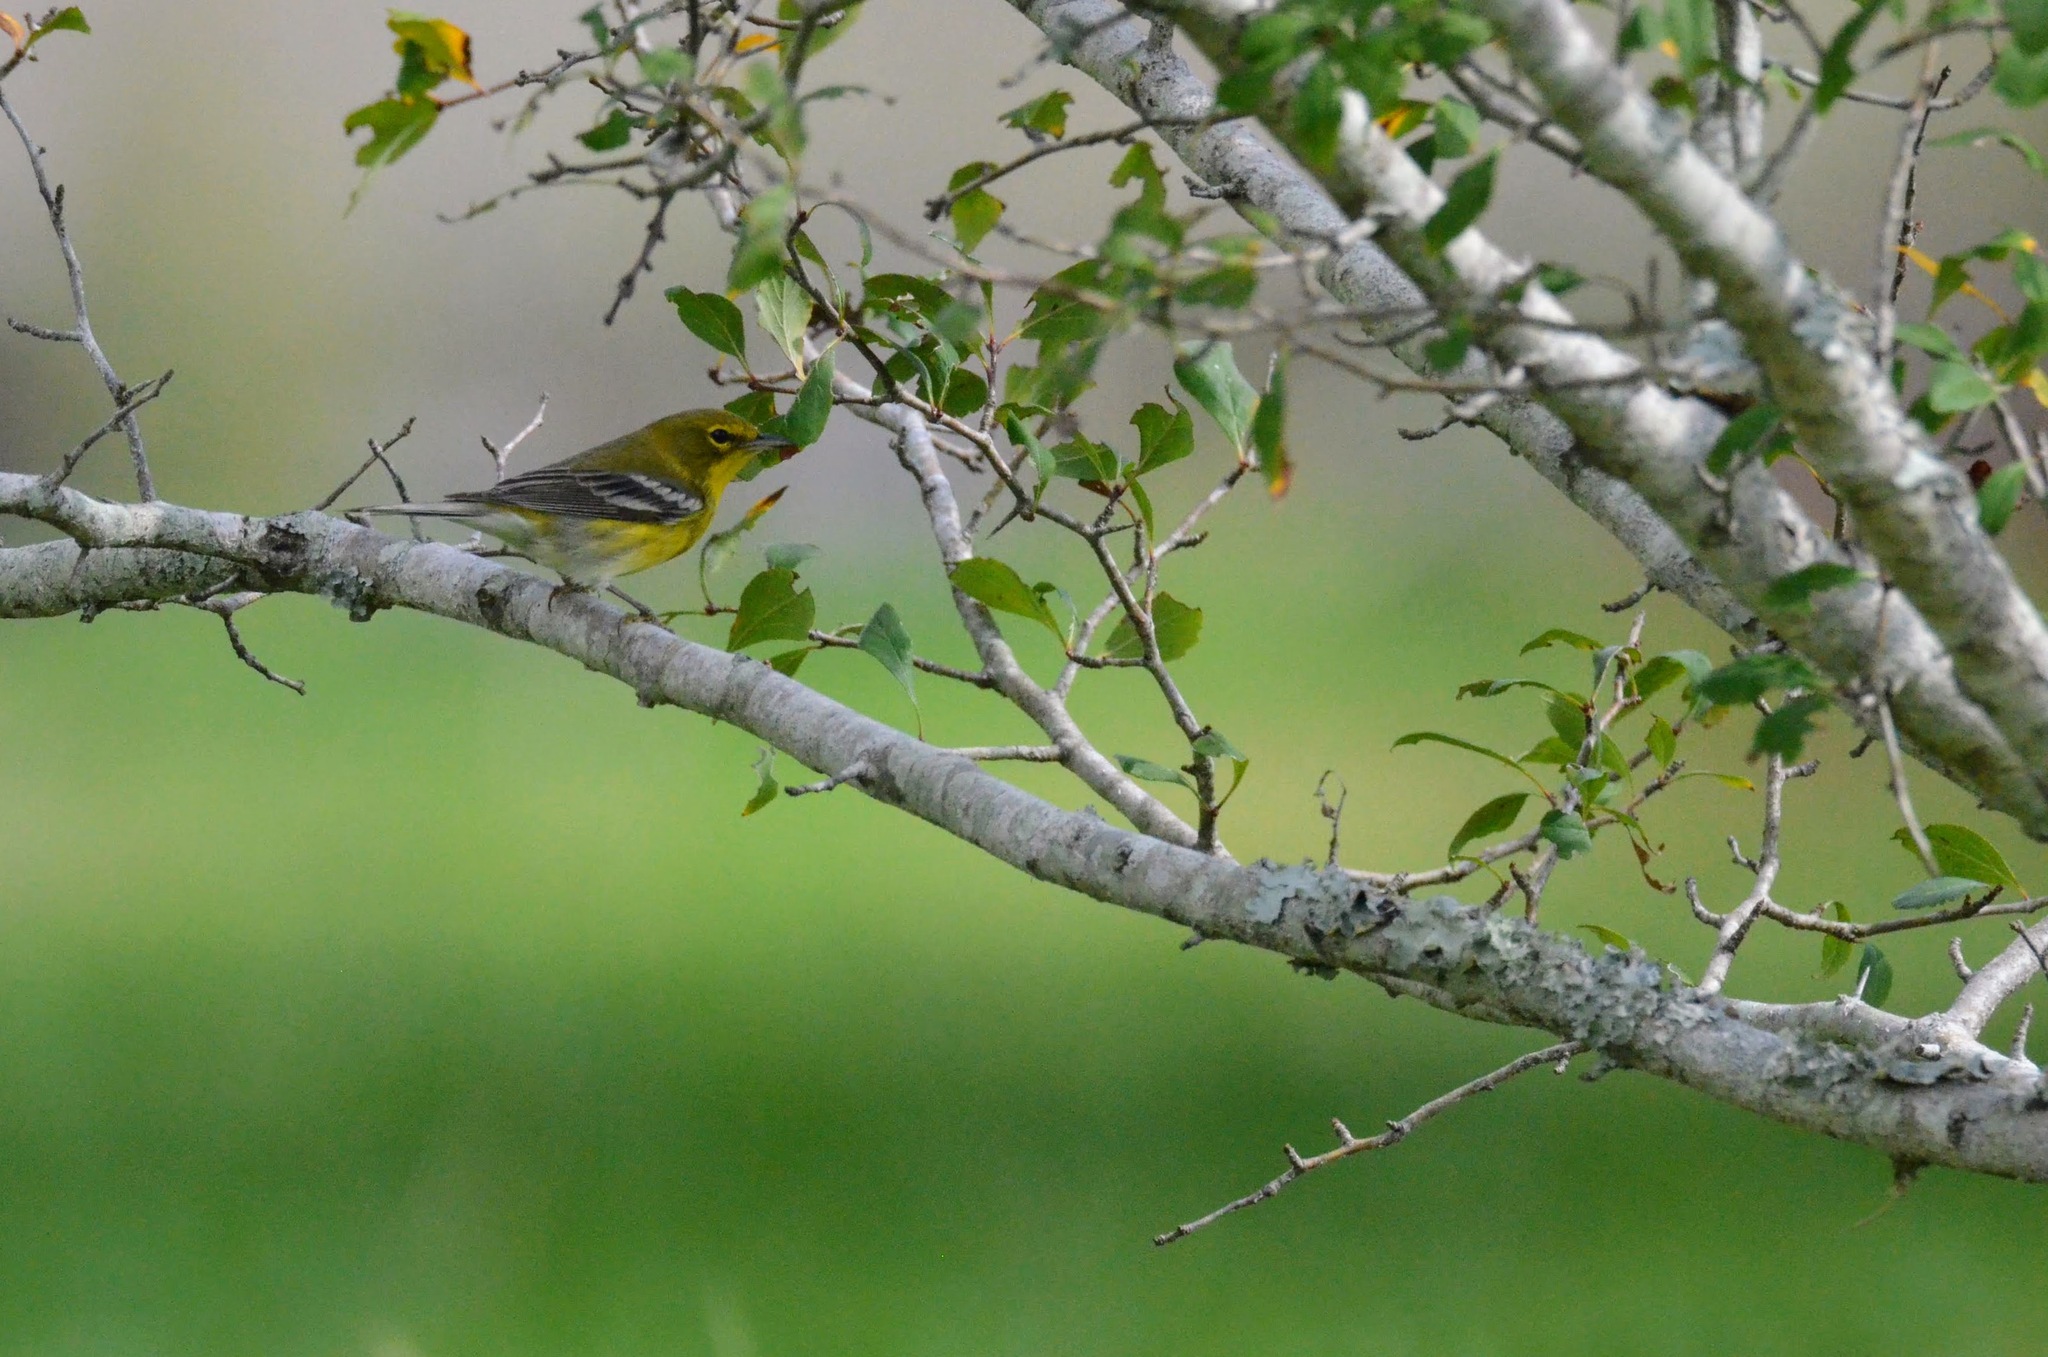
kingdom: Animalia
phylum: Chordata
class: Aves
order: Passeriformes
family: Parulidae
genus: Setophaga
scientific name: Setophaga pinus
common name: Pine warbler
